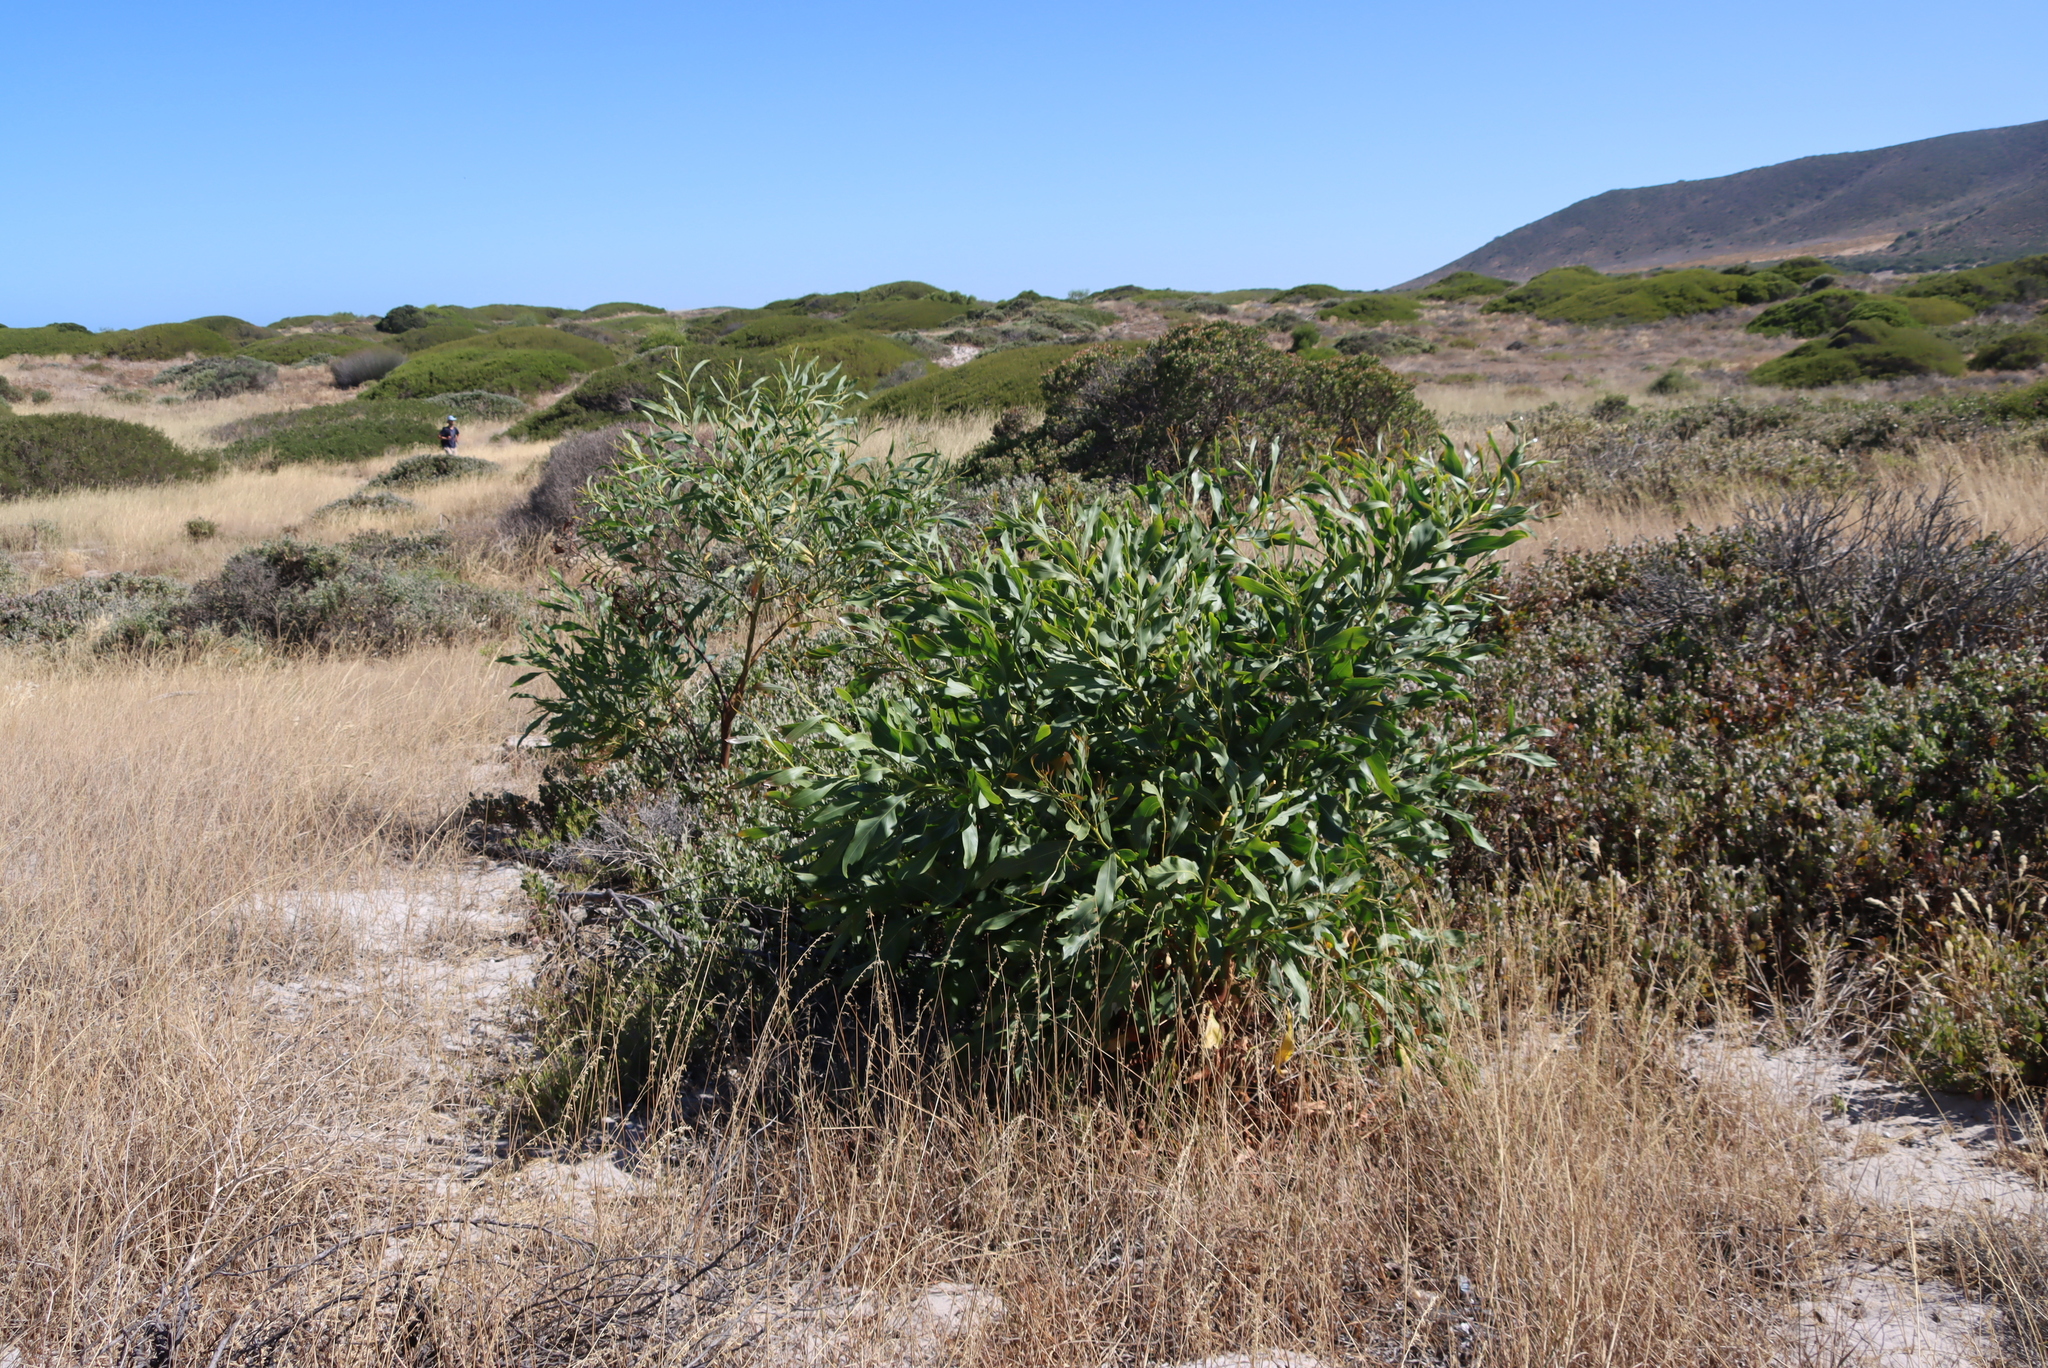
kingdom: Plantae
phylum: Tracheophyta
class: Magnoliopsida
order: Fabales
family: Fabaceae
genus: Acacia
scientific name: Acacia saligna
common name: Orange wattle
